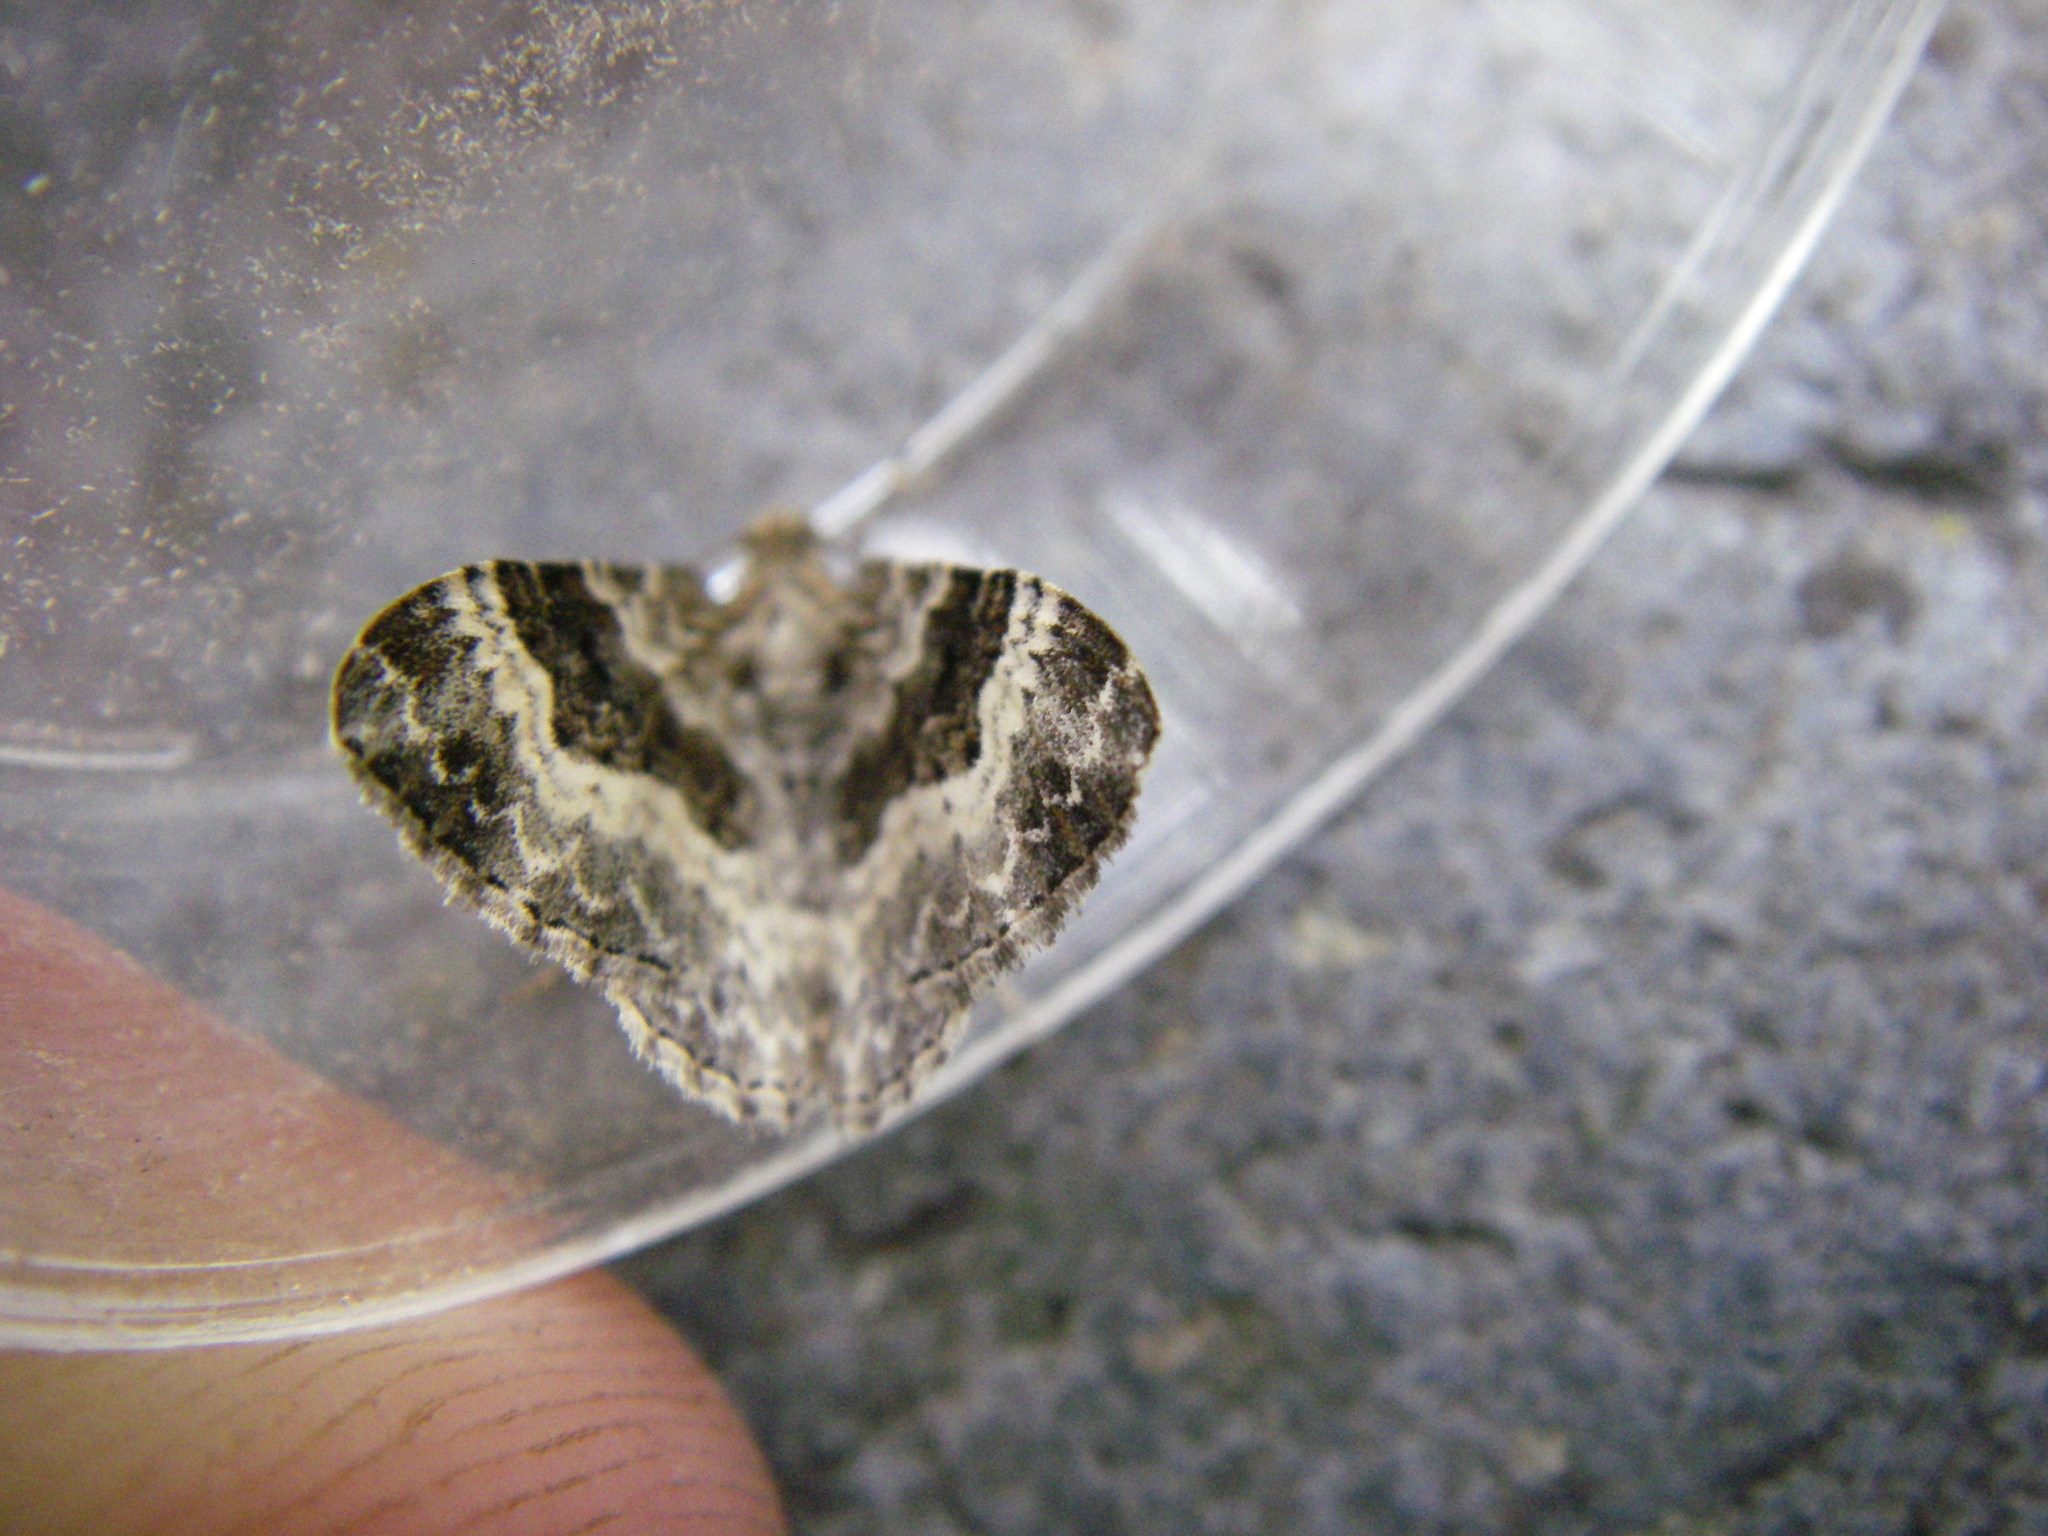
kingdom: Animalia
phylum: Arthropoda
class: Insecta
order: Lepidoptera
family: Geometridae
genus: Epirrhoe
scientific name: Epirrhoe alternata
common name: Common carpet
